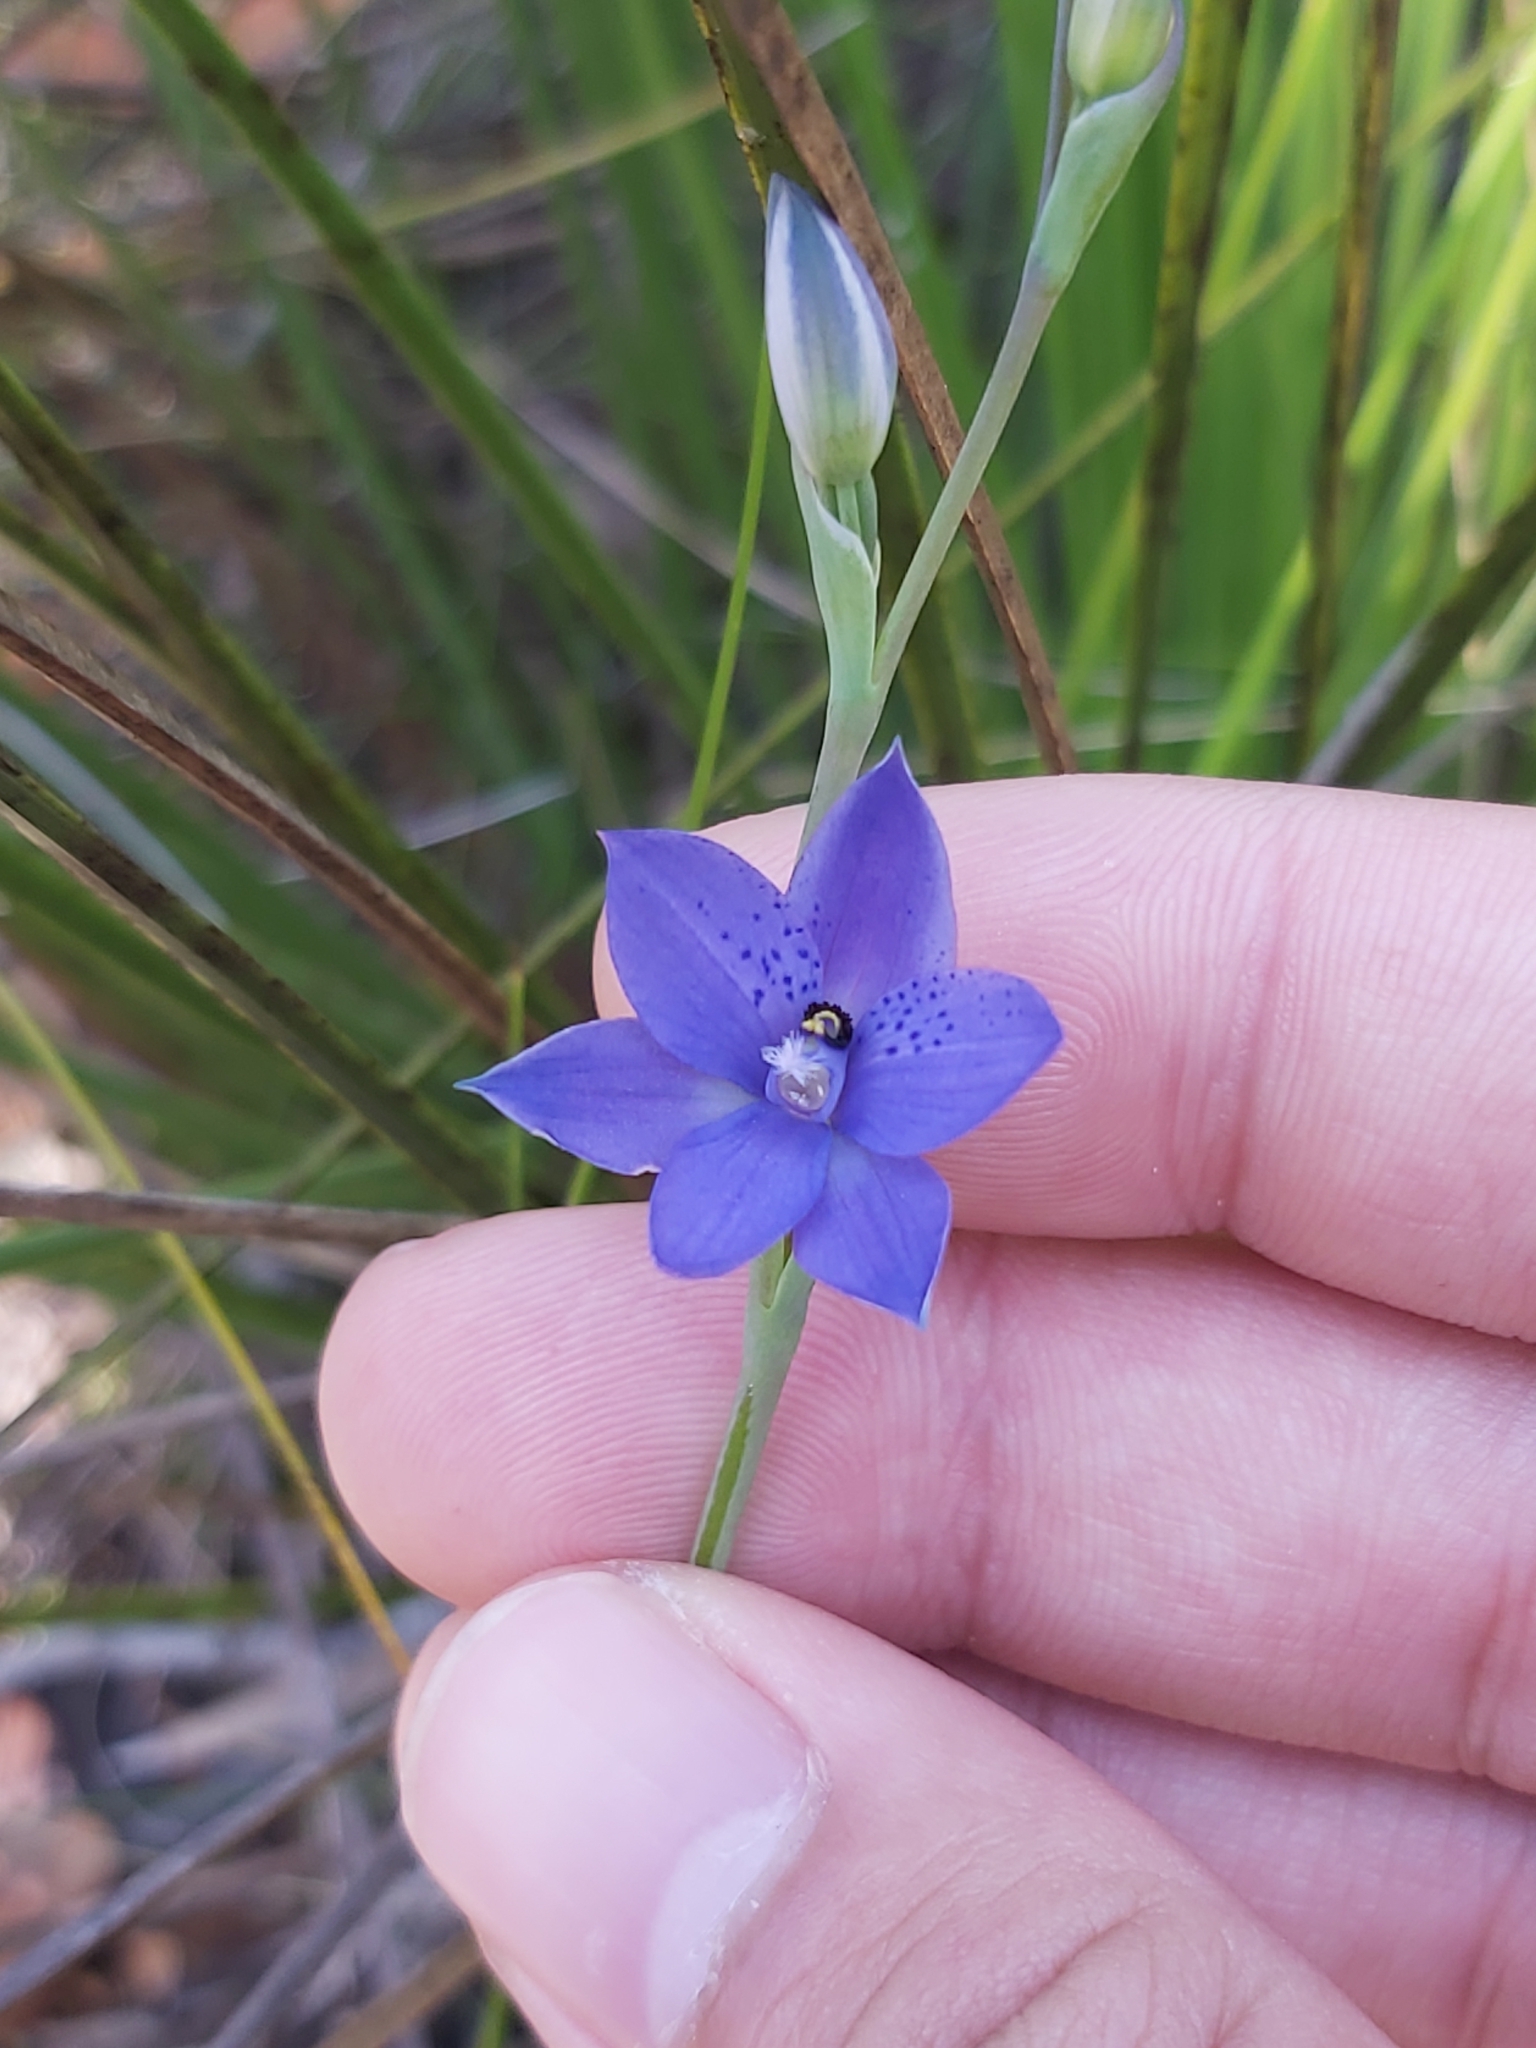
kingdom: Plantae
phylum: Tracheophyta
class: Liliopsida
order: Asparagales
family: Orchidaceae
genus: Thelymitra
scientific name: Thelymitra ixioides
